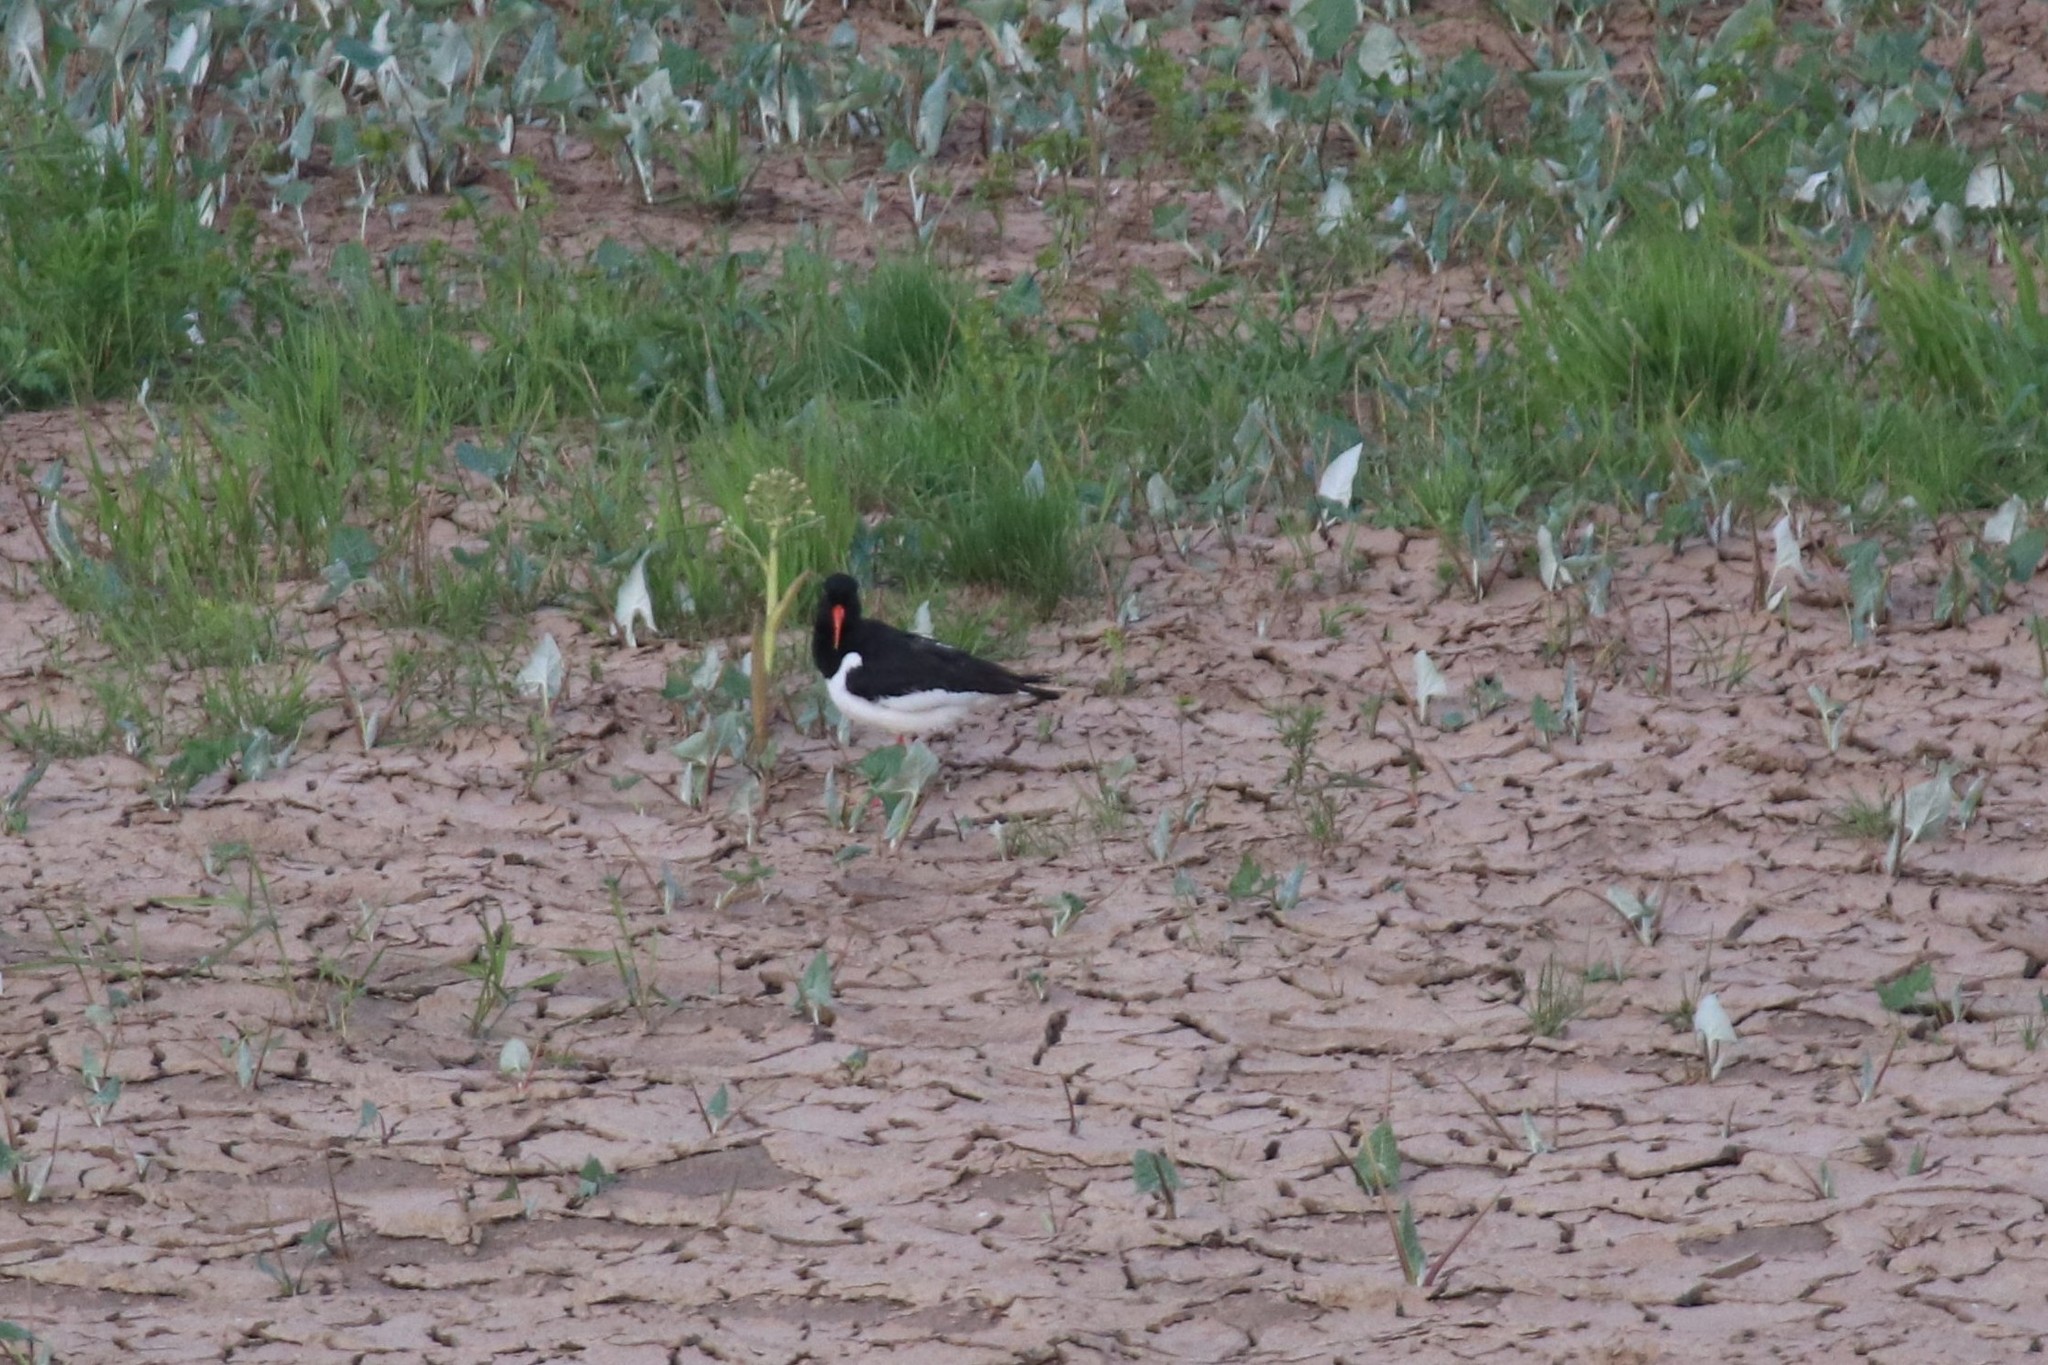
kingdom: Animalia
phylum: Chordata
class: Aves
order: Charadriiformes
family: Haematopodidae
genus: Haematopus
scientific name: Haematopus ostralegus
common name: Eurasian oystercatcher
